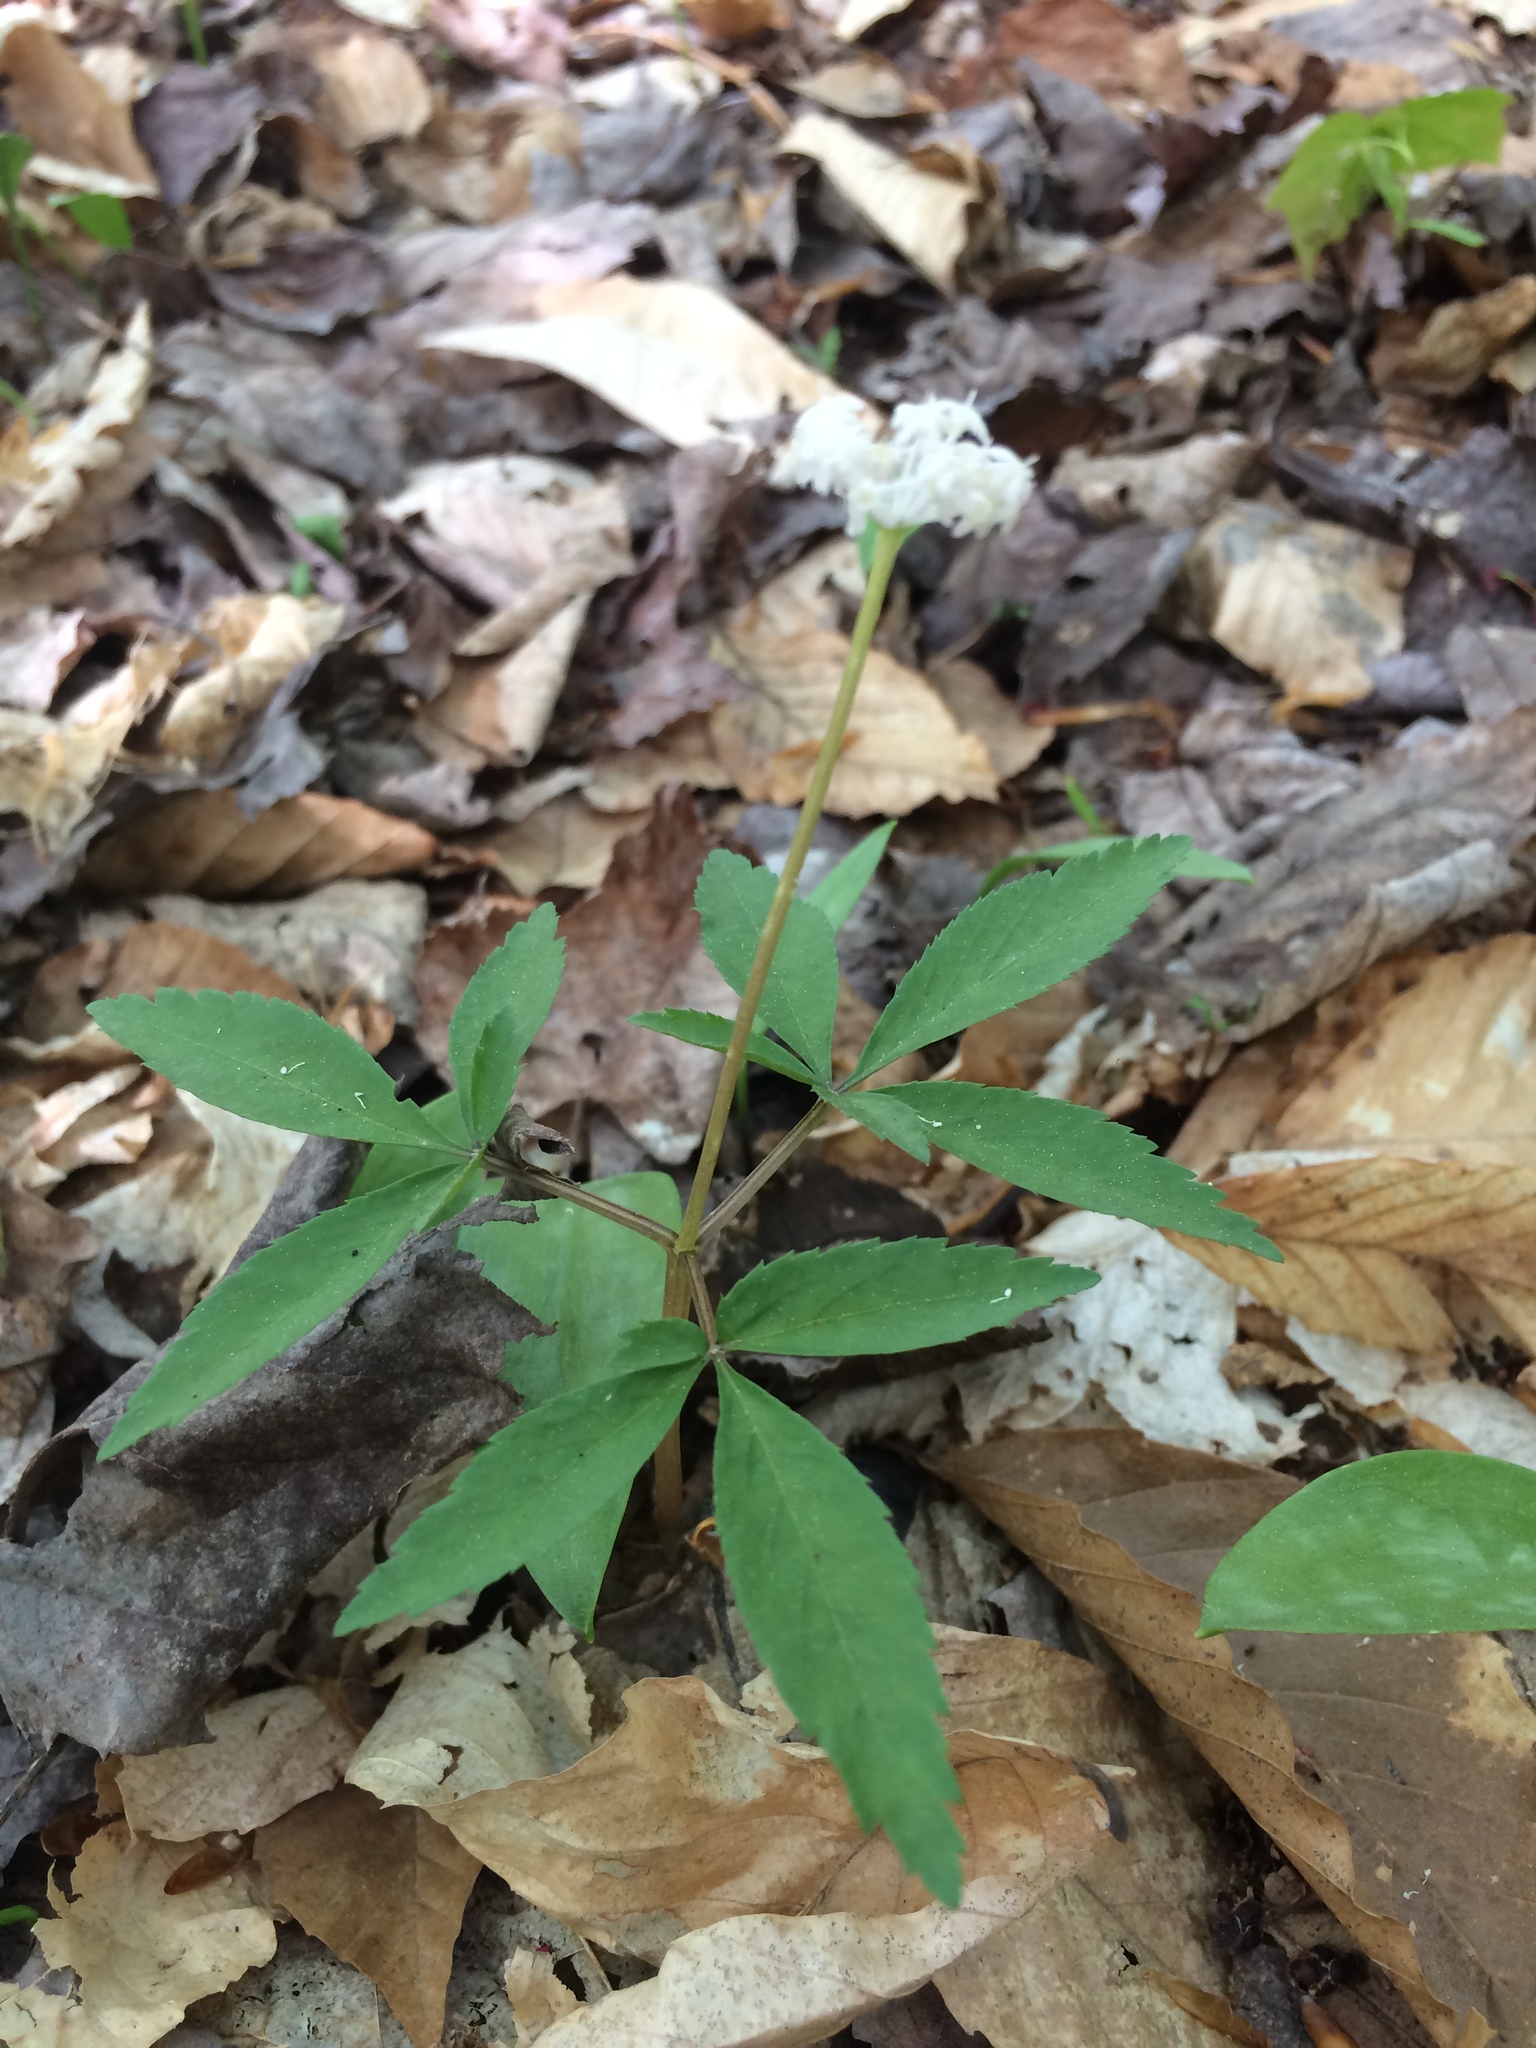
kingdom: Plantae
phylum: Tracheophyta
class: Magnoliopsida
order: Apiales
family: Araliaceae
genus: Panax
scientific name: Panax trifolius
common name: Dwarf ginseng
